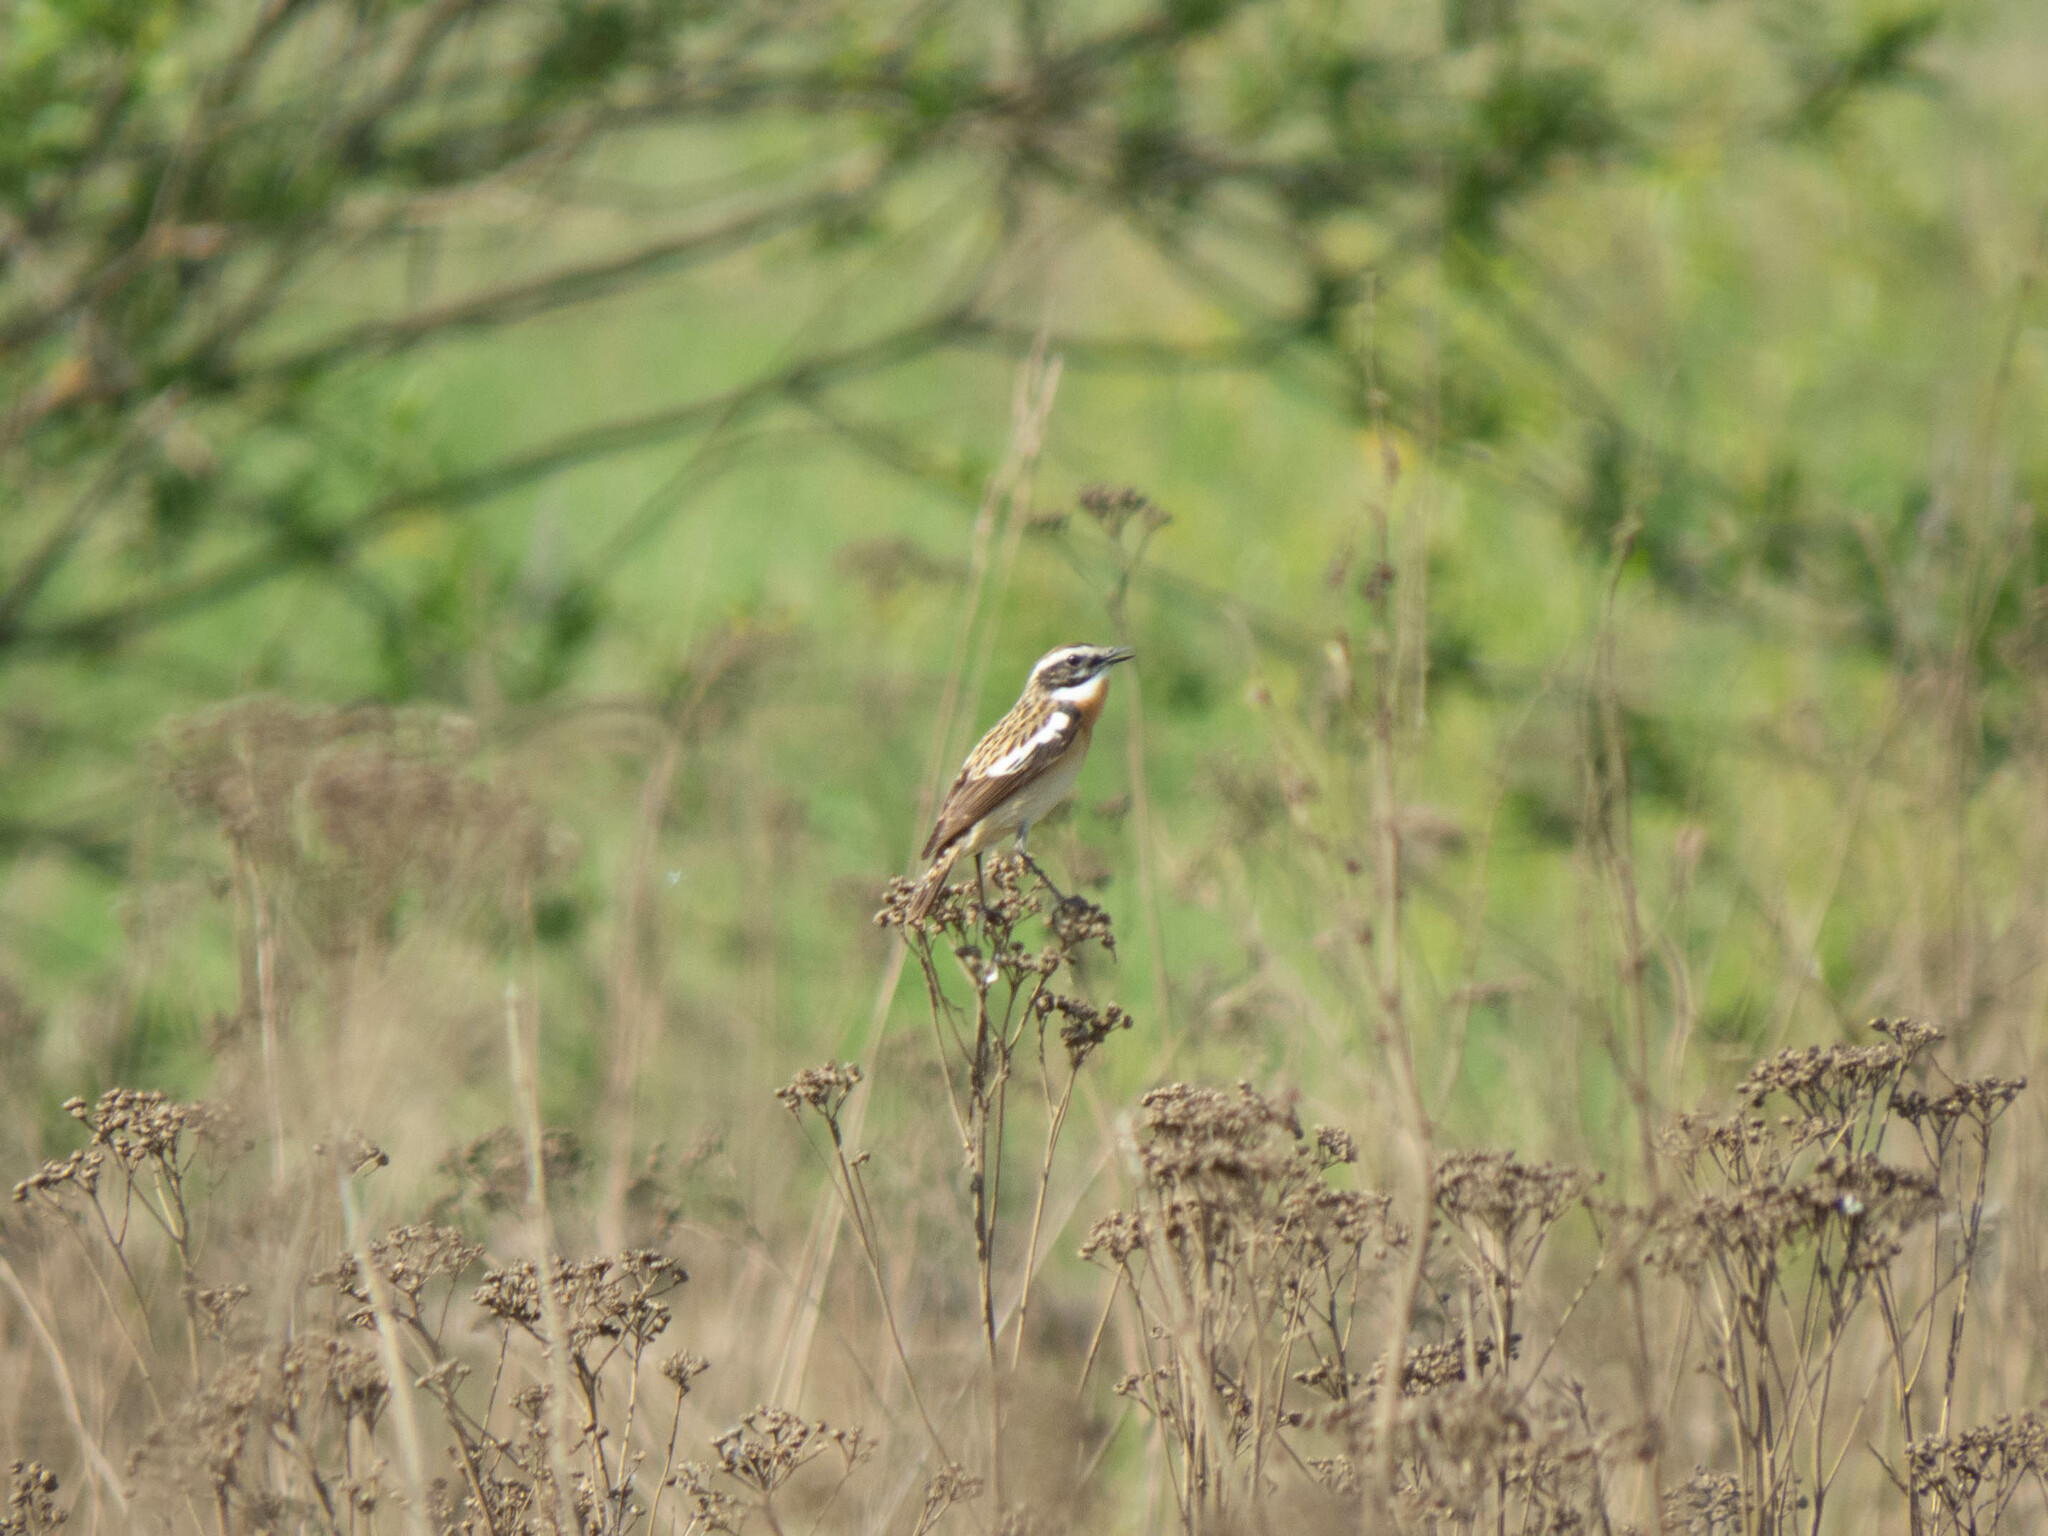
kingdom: Animalia
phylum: Chordata
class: Aves
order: Passeriformes
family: Muscicapidae
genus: Saxicola
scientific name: Saxicola rubetra
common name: Whinchat
